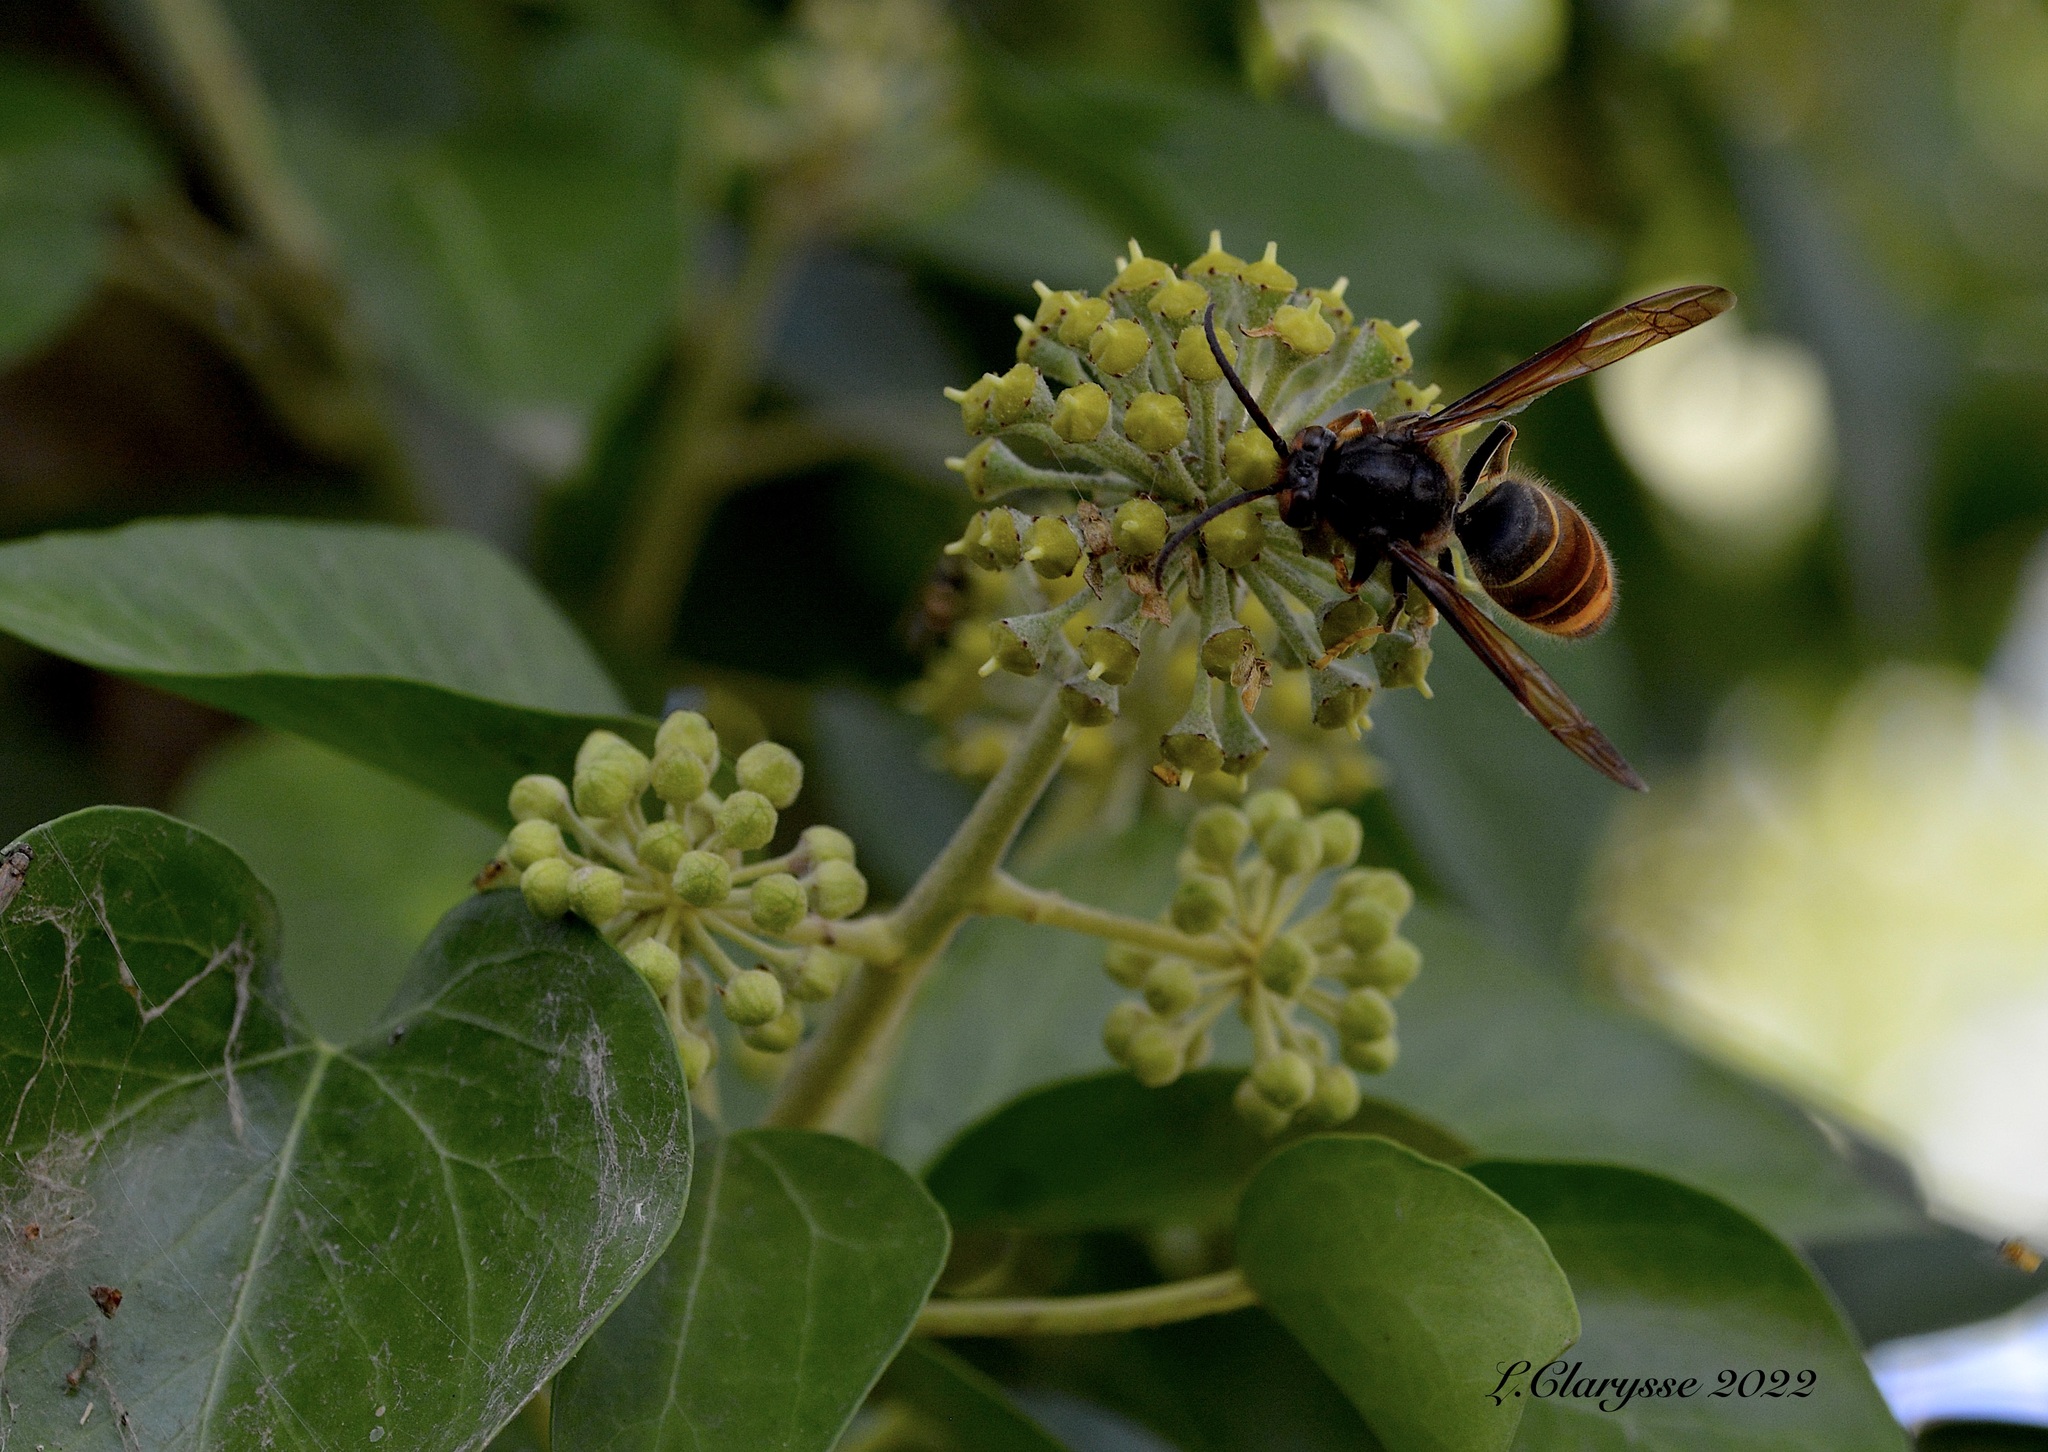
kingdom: Animalia
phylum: Arthropoda
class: Insecta
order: Hymenoptera
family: Vespidae
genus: Vespa
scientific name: Vespa velutina
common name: Asian hornet
